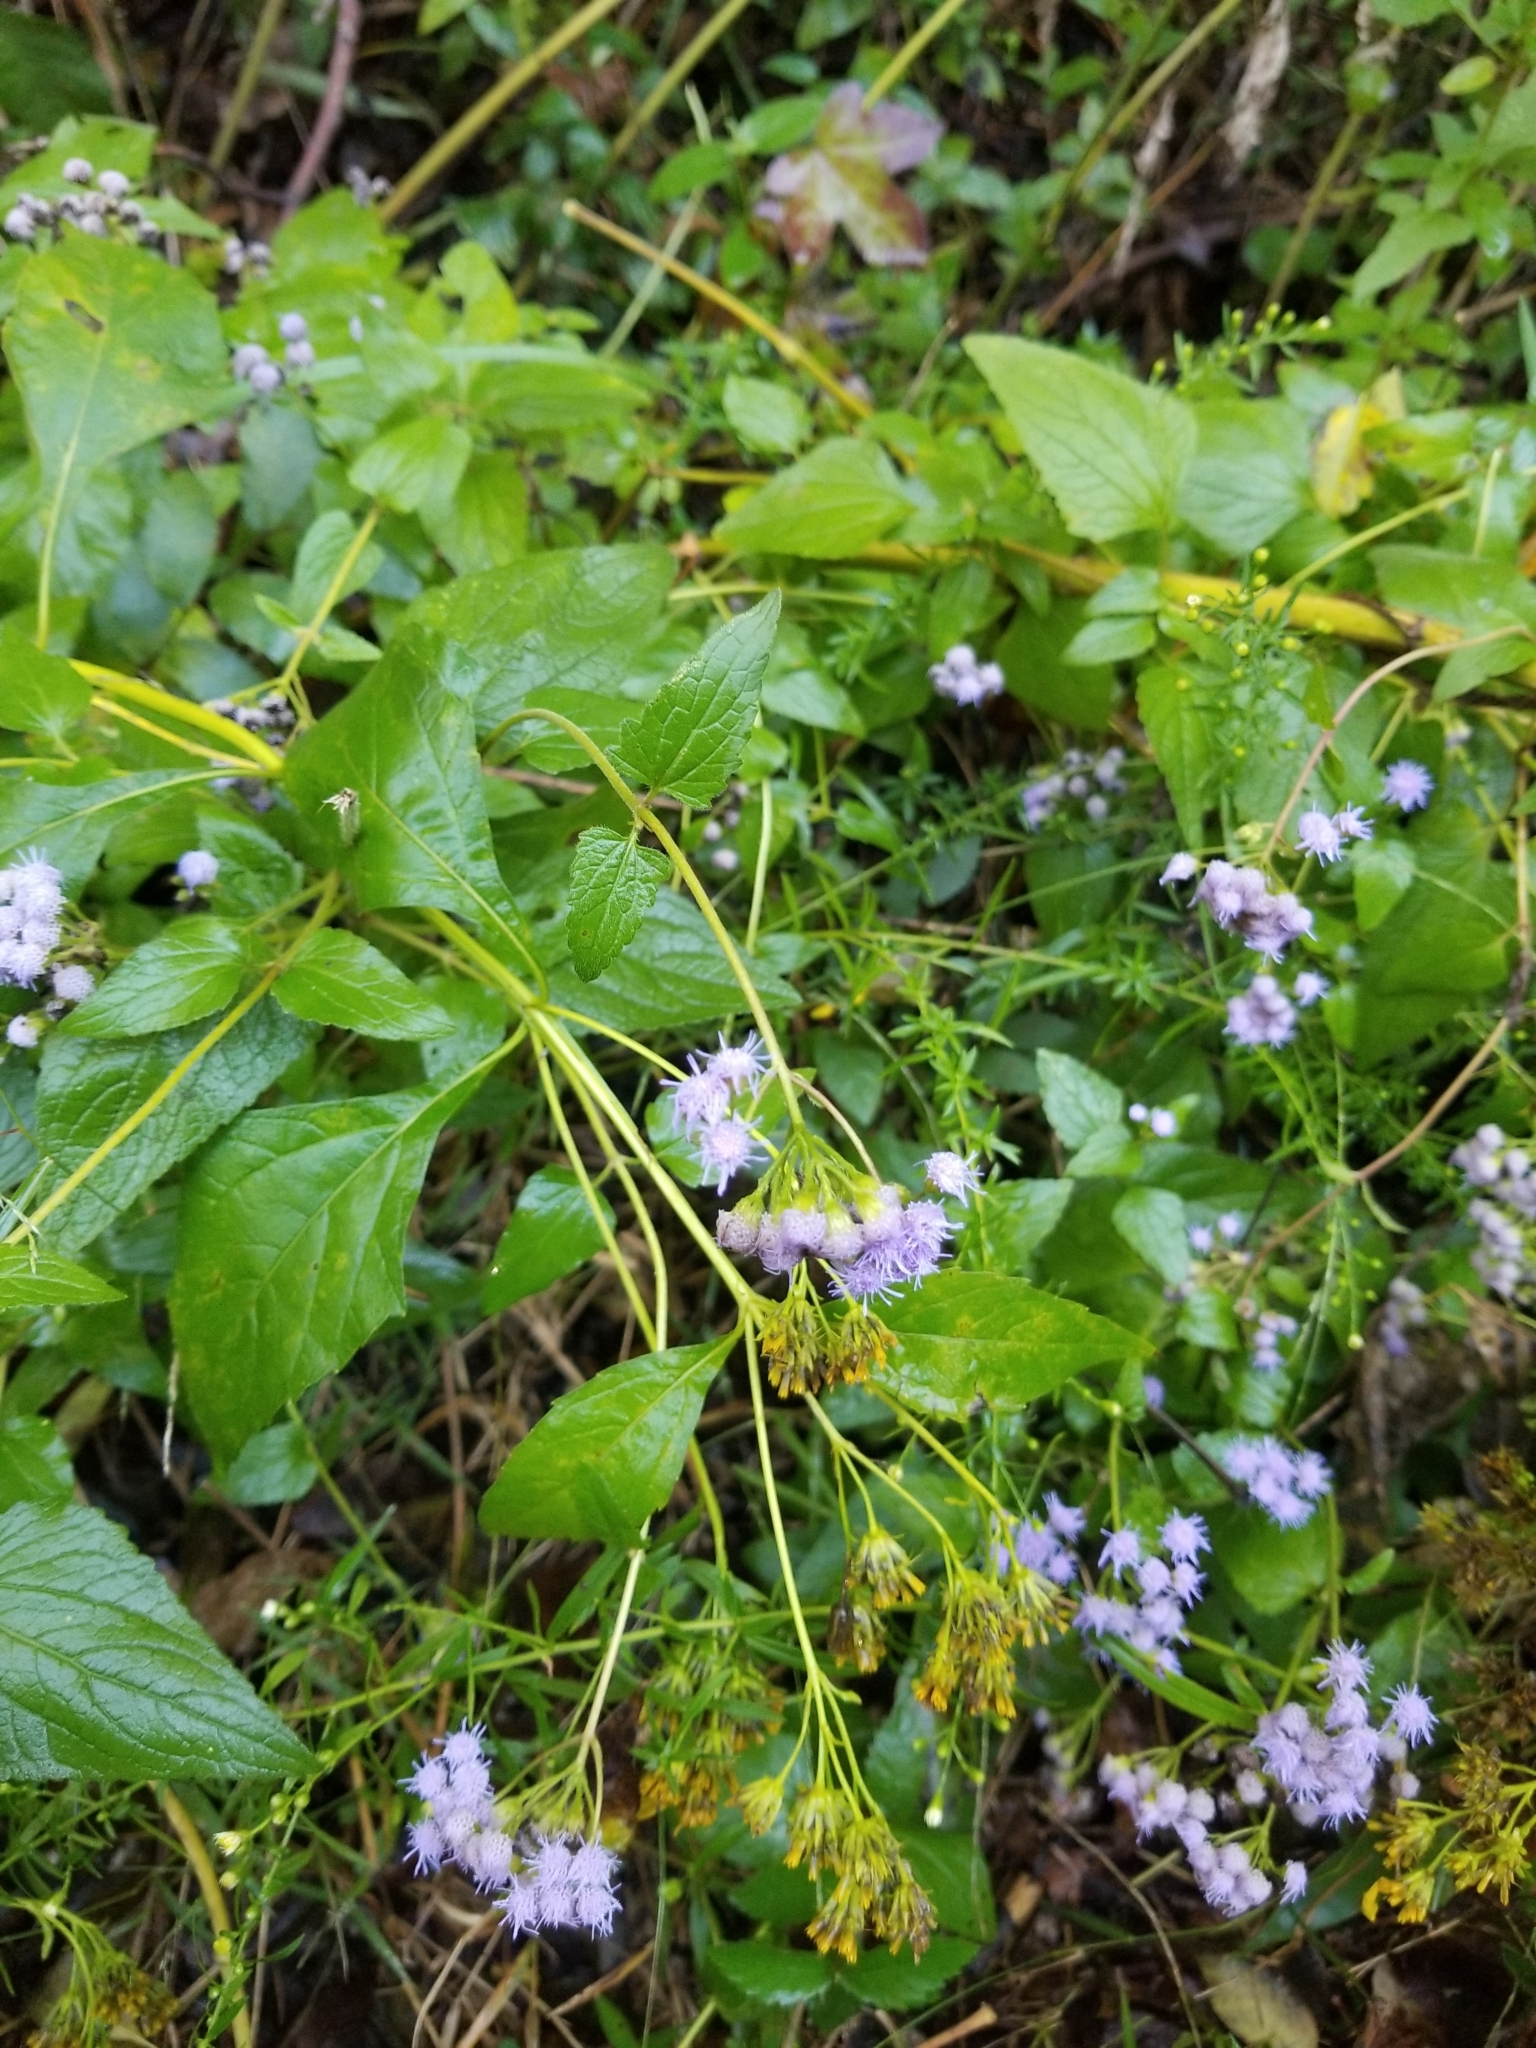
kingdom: Plantae
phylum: Tracheophyta
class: Magnoliopsida
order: Asterales
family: Asteraceae
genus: Conoclinium
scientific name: Conoclinium coelestinum
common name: Blue mistflower
